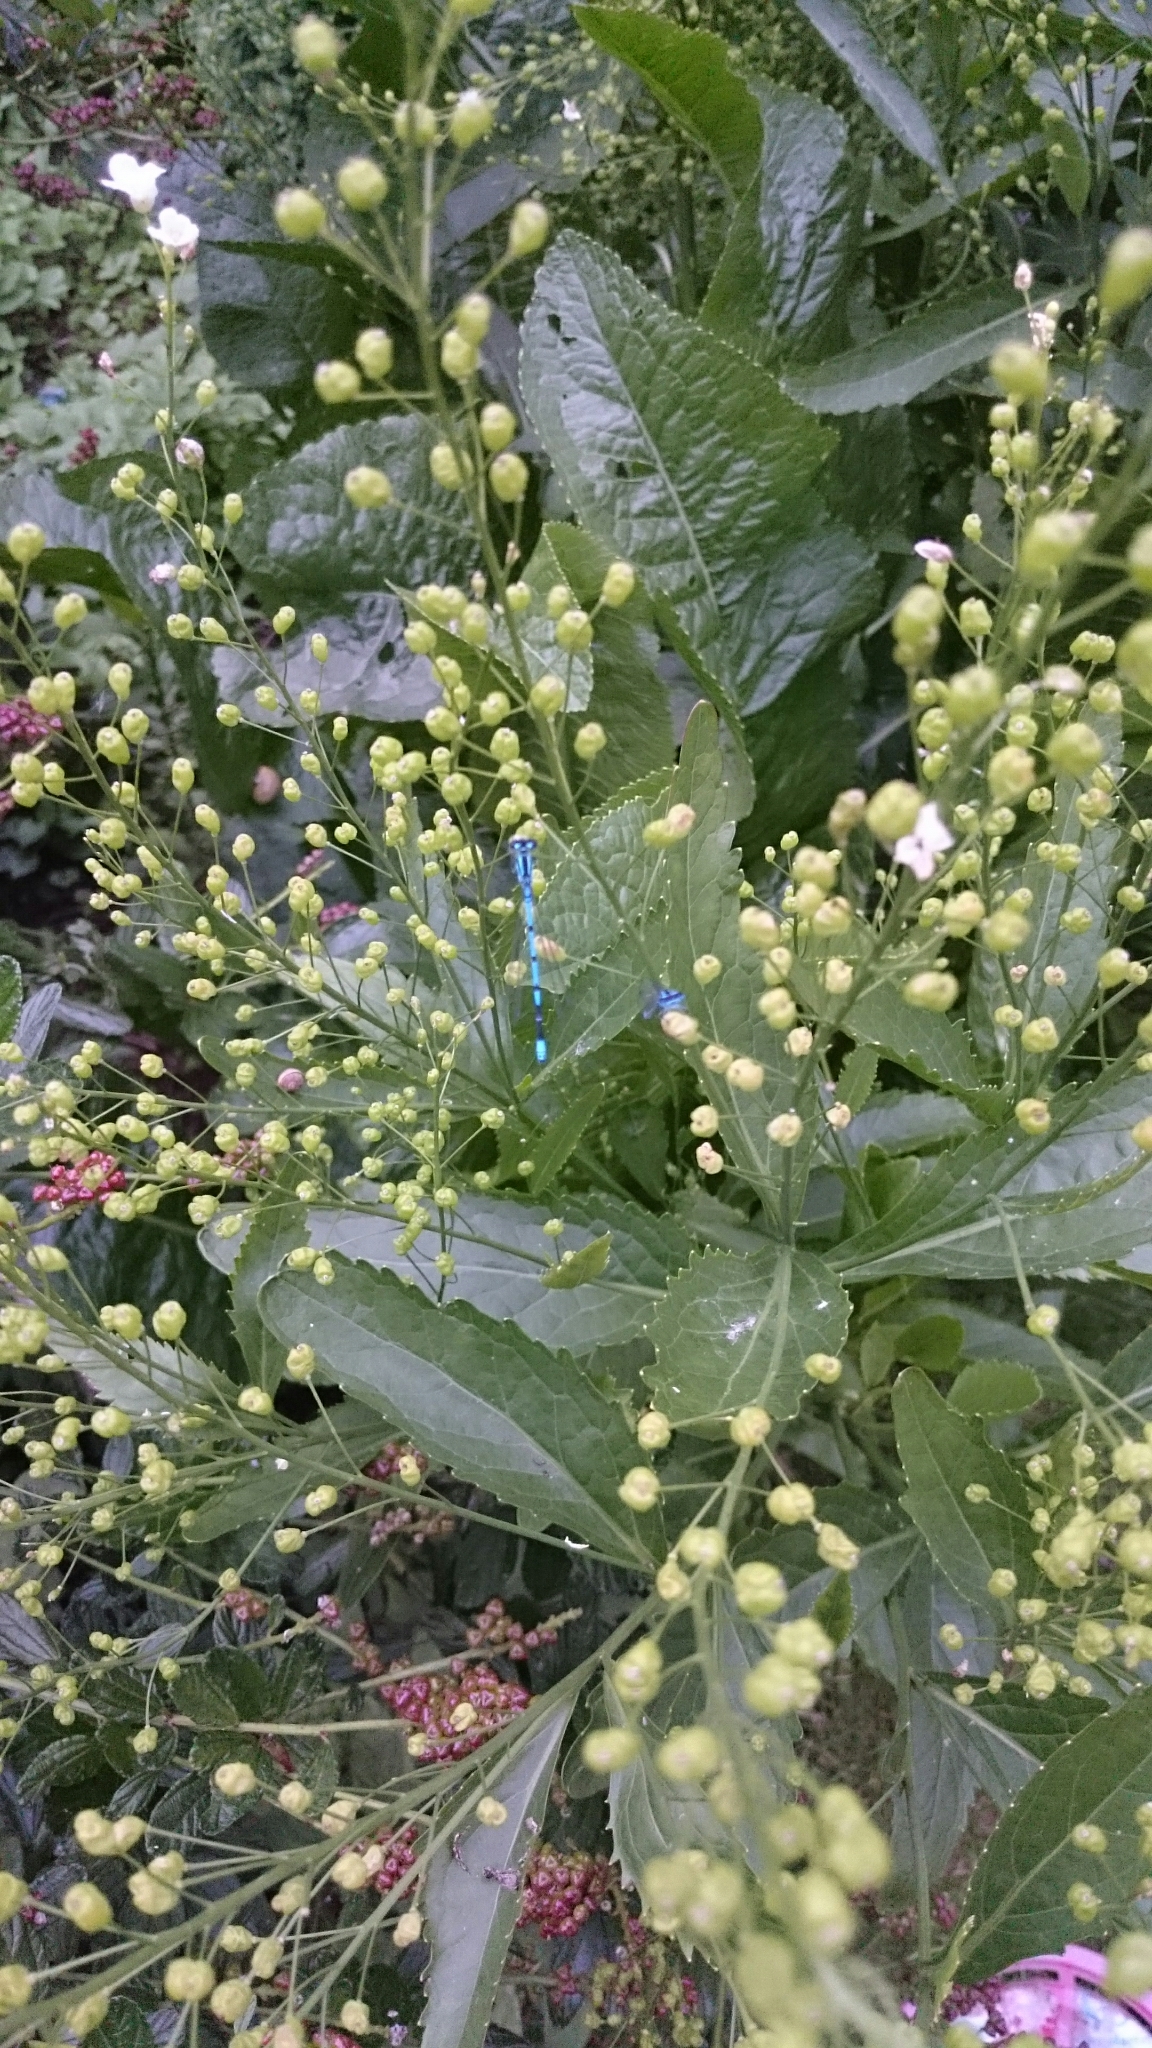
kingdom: Animalia
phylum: Arthropoda
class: Insecta
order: Odonata
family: Coenagrionidae
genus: Coenagrion
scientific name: Coenagrion puella
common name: Azure damselfly
